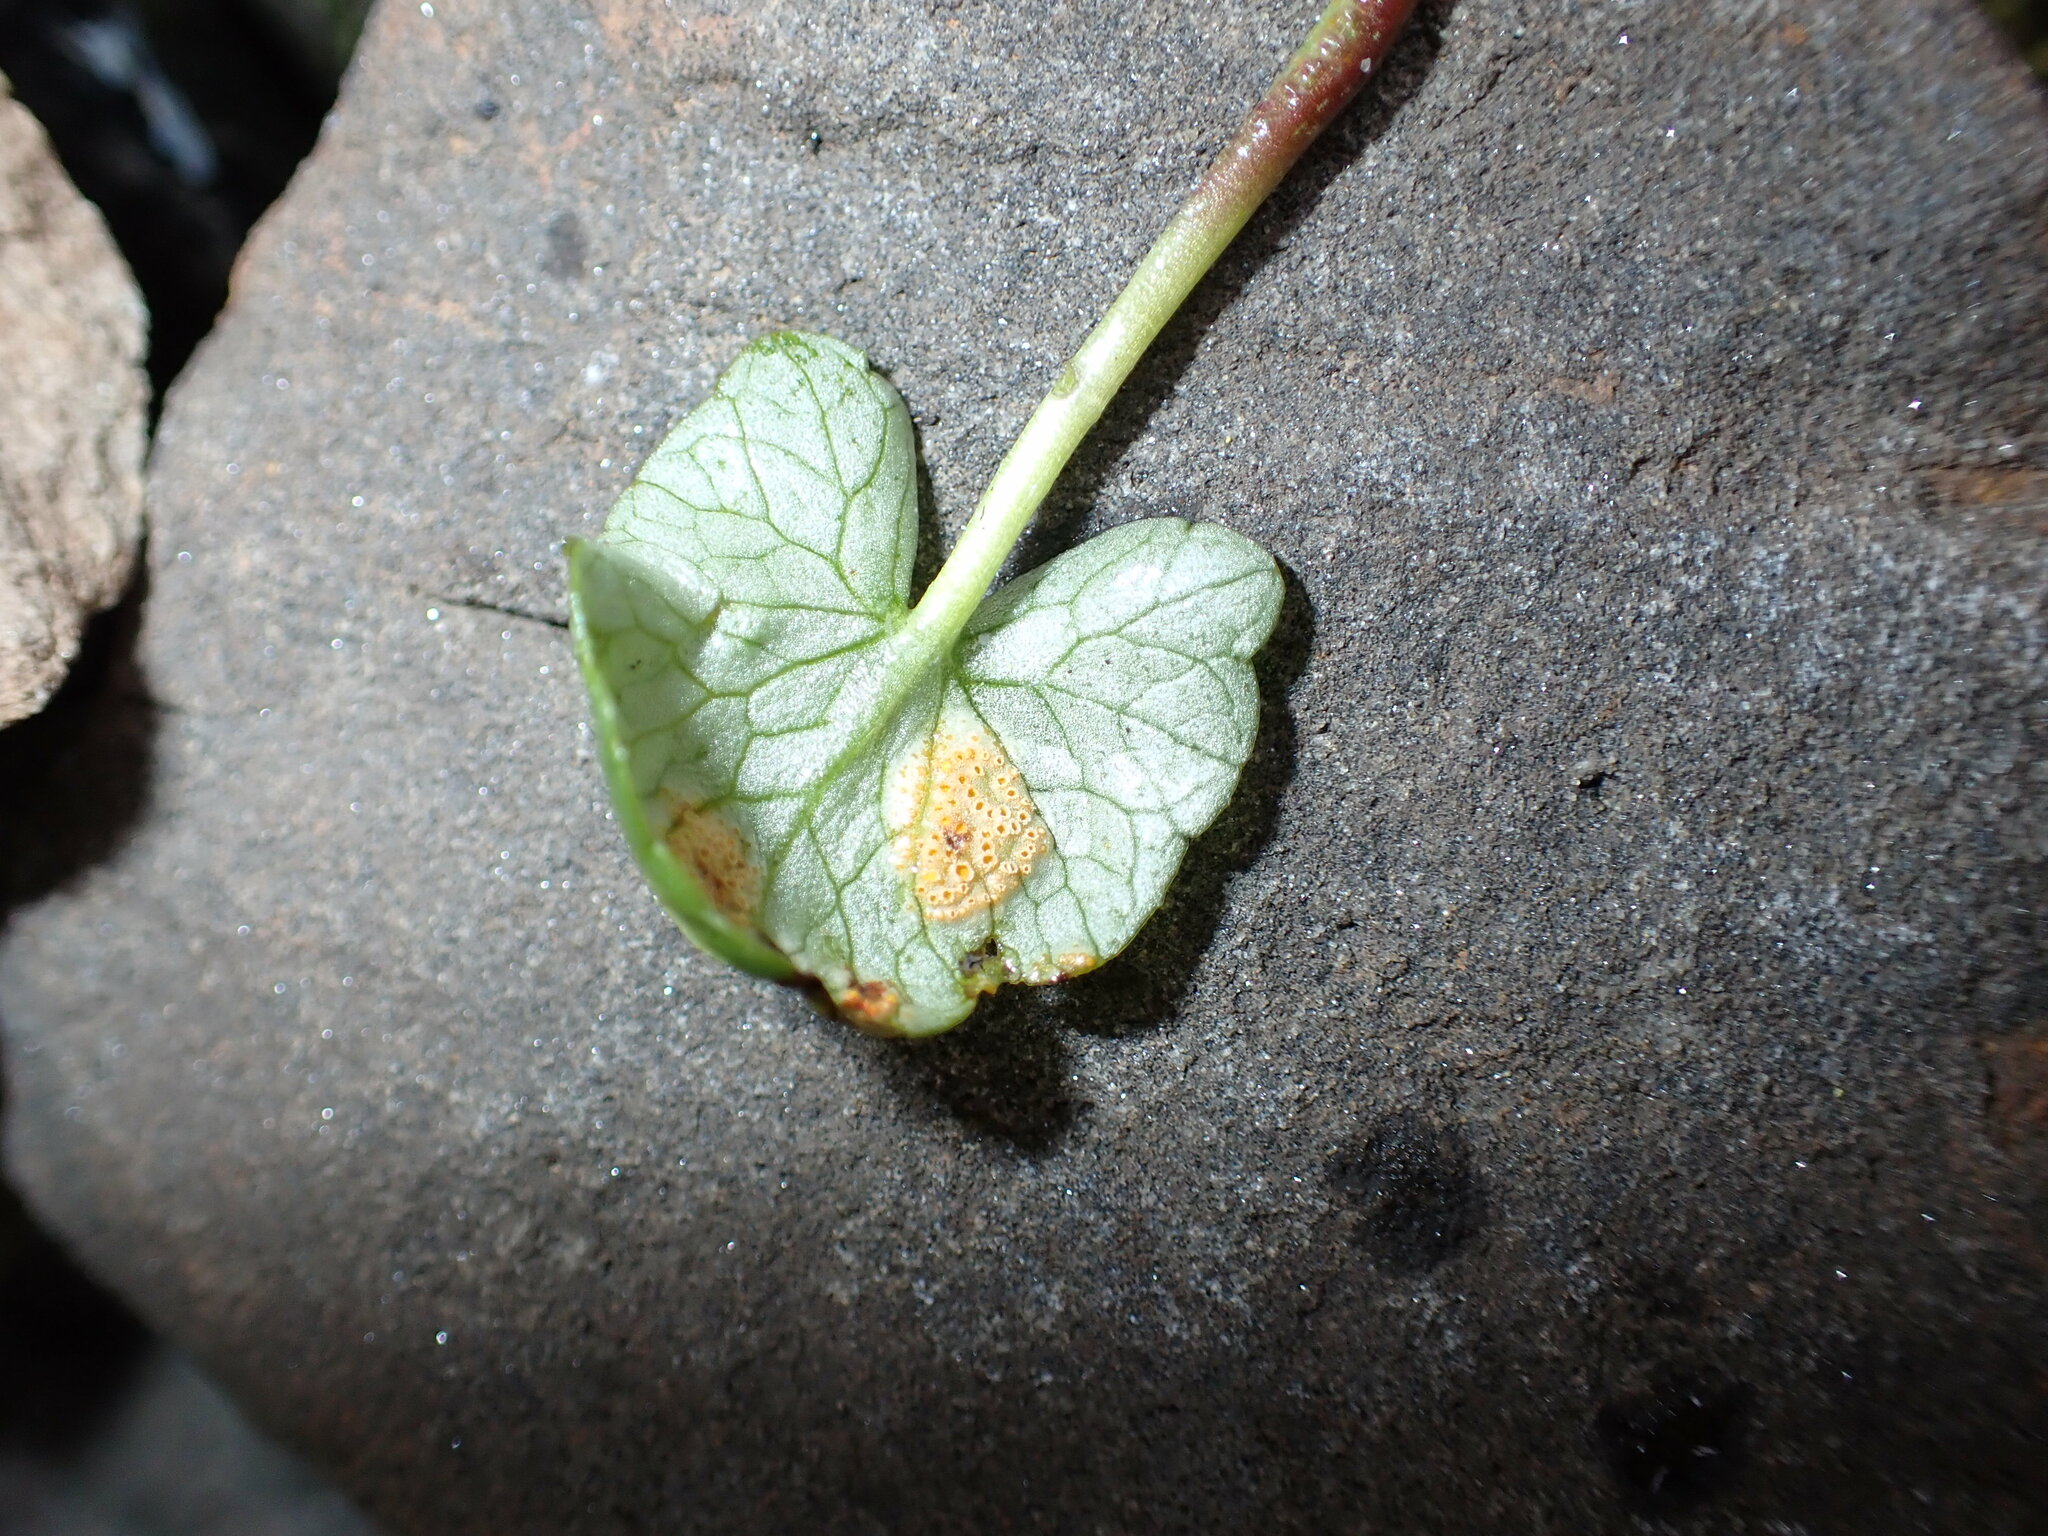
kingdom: Fungi
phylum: Basidiomycota
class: Pucciniomycetes
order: Pucciniales
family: Pucciniaceae
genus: Uromyces
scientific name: Uromyces
